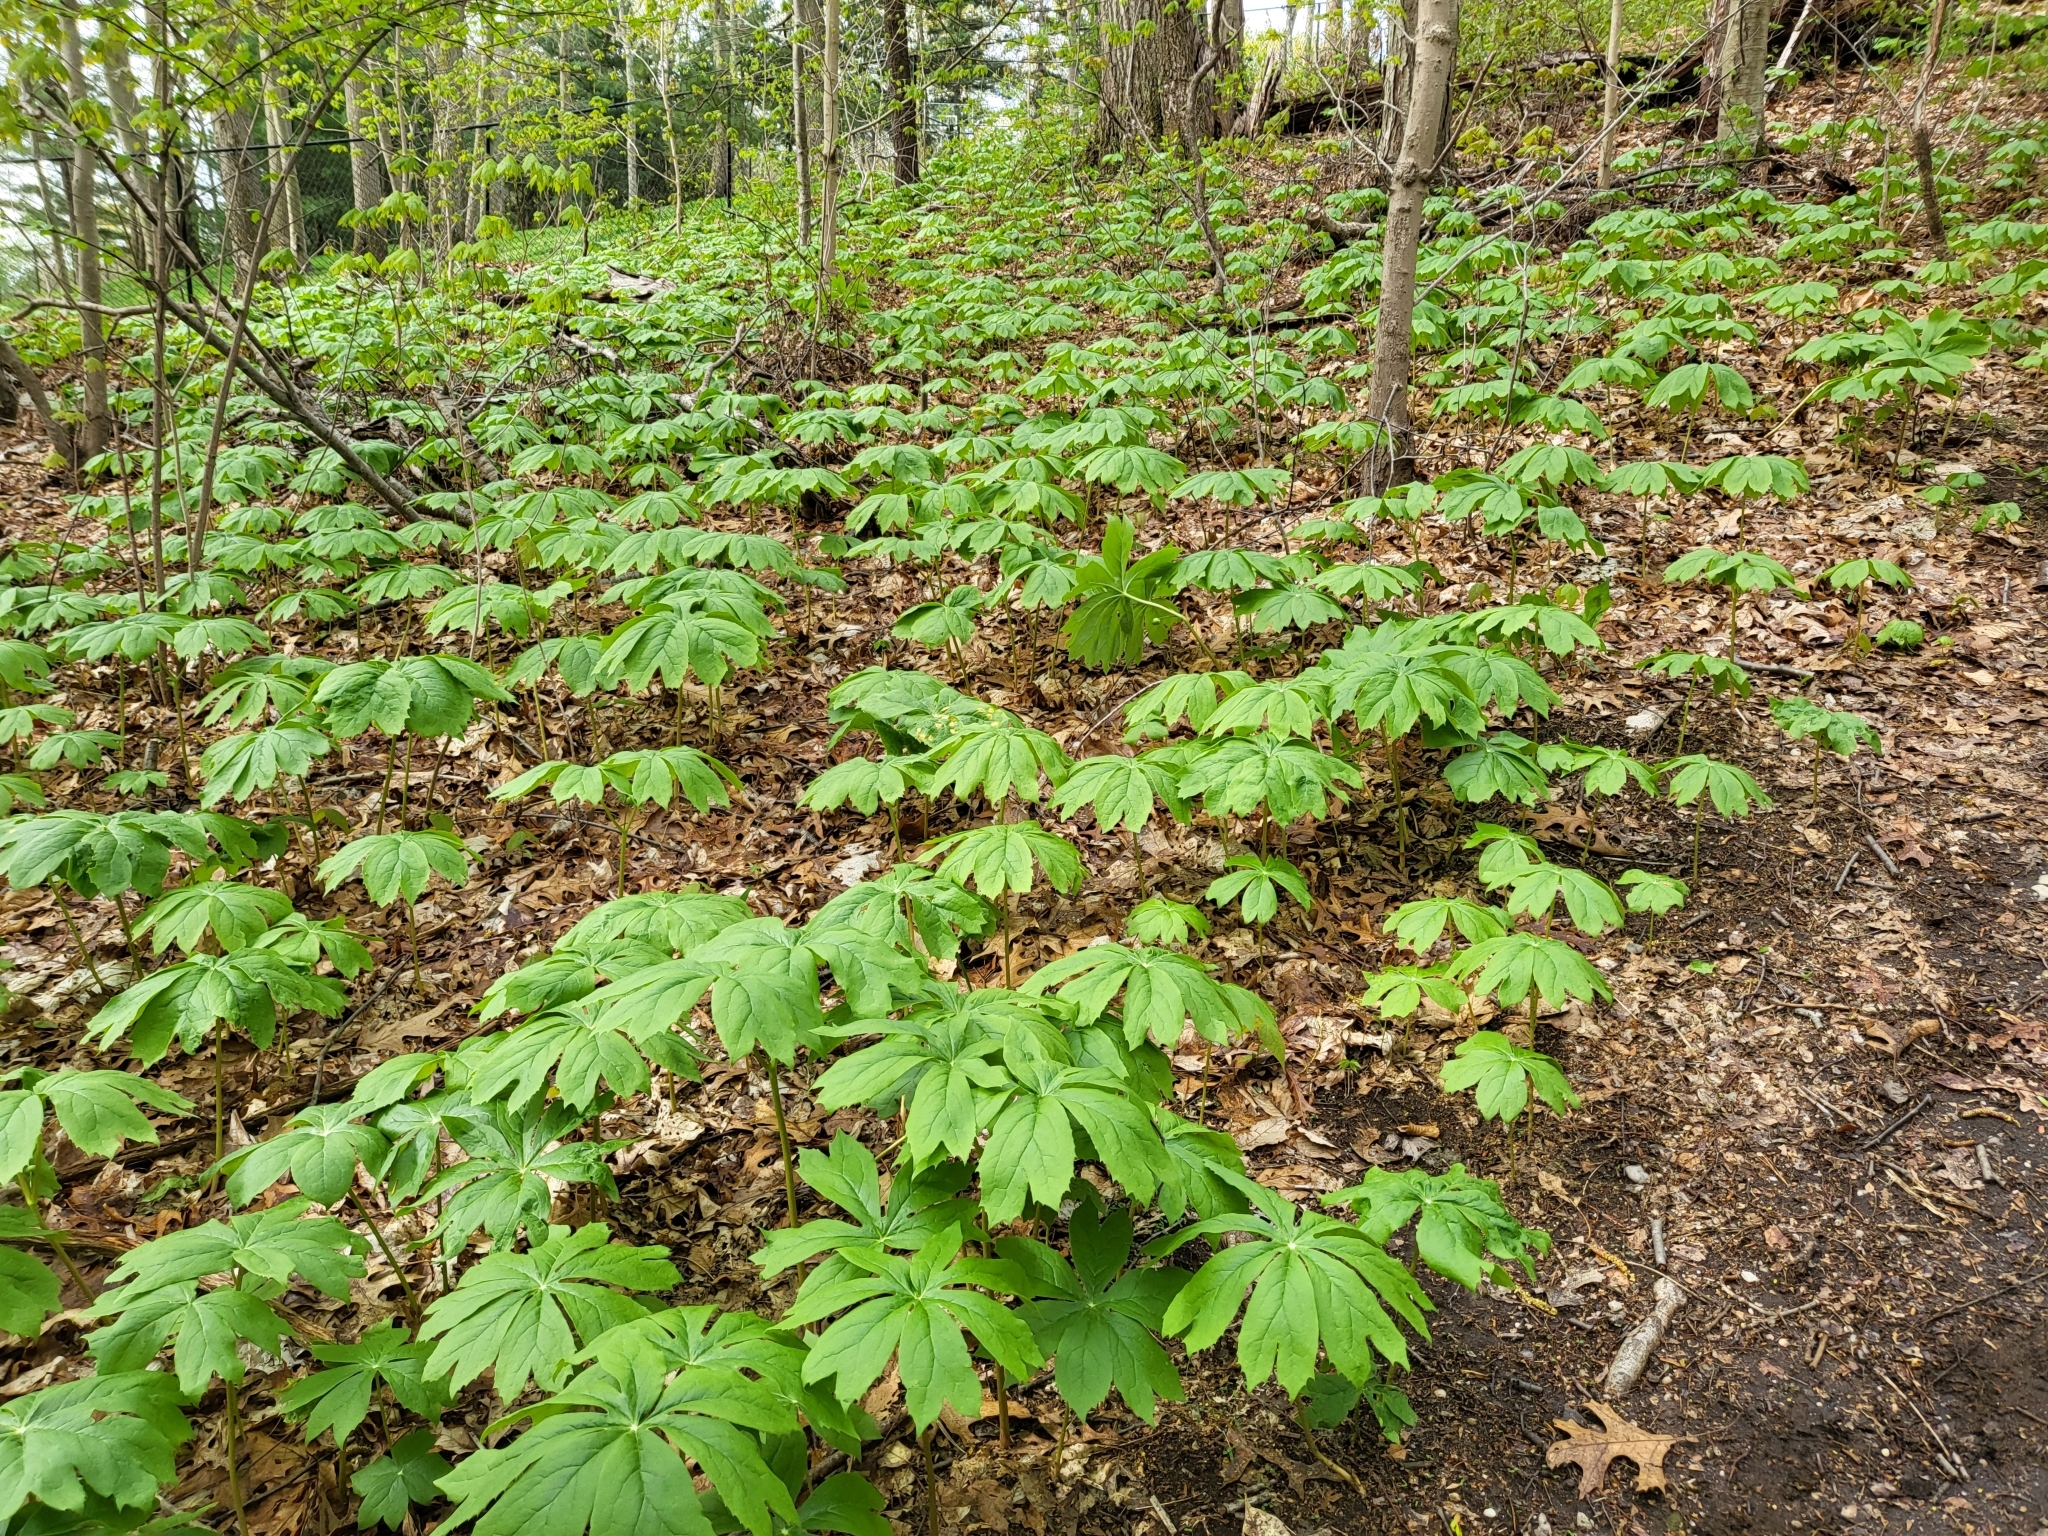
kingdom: Plantae
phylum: Tracheophyta
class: Magnoliopsida
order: Ranunculales
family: Berberidaceae
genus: Podophyllum
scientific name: Podophyllum peltatum
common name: Wild mandrake
